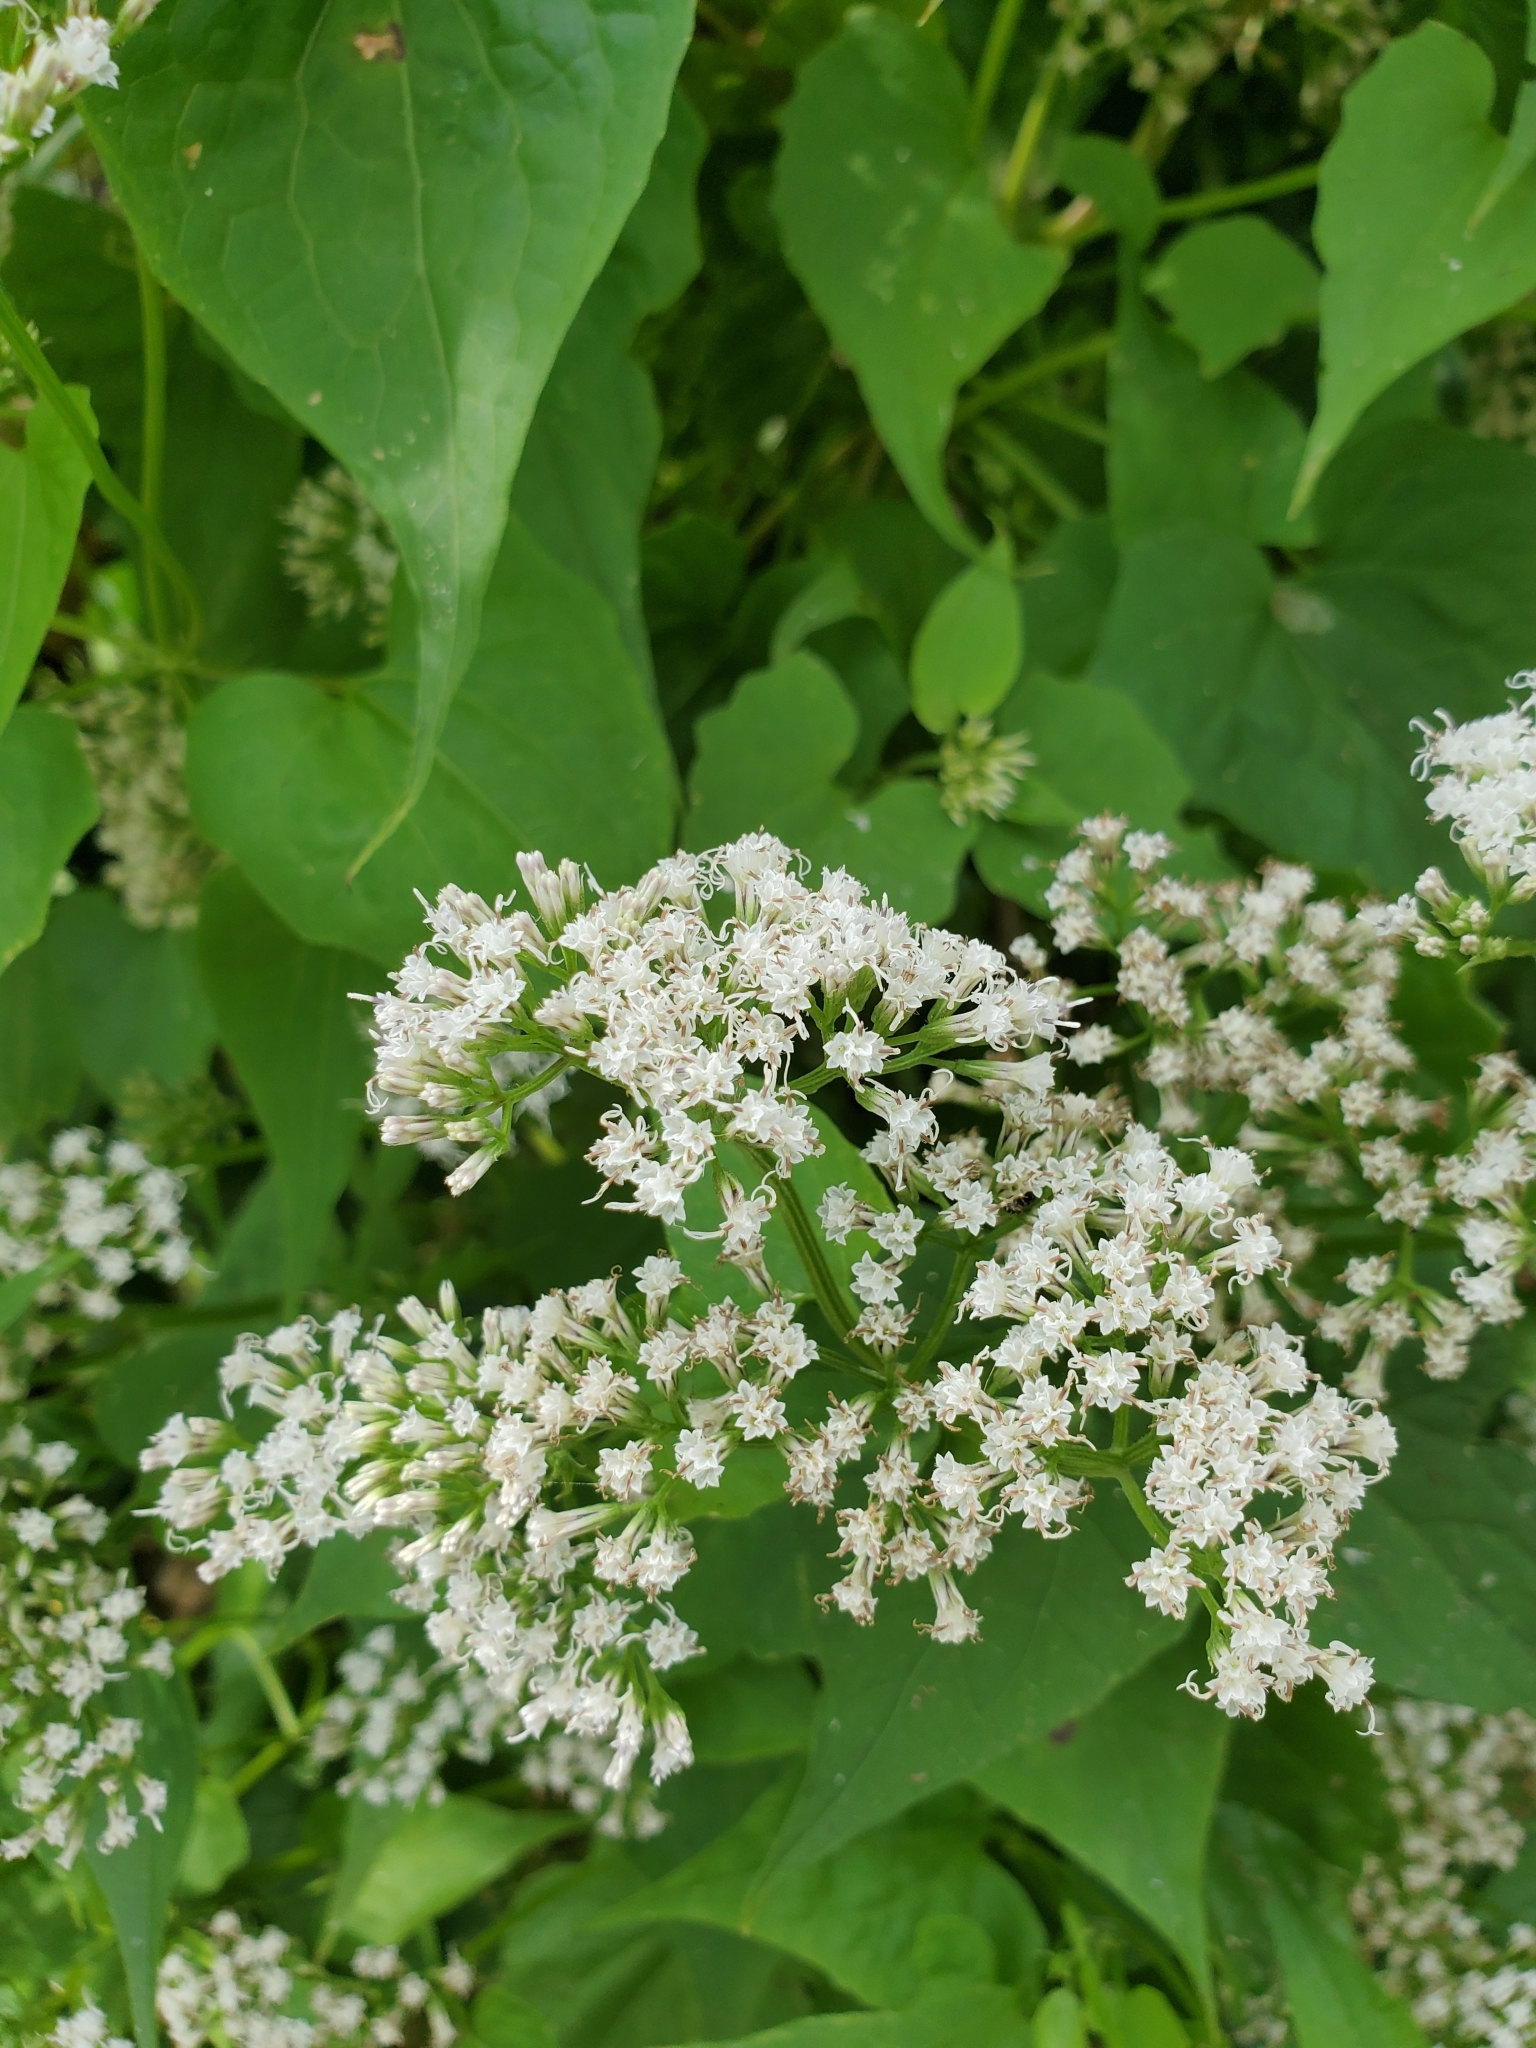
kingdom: Plantae
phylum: Tracheophyta
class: Magnoliopsida
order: Asterales
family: Asteraceae
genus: Mikania
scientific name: Mikania scandens
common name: Climbing hempvine
